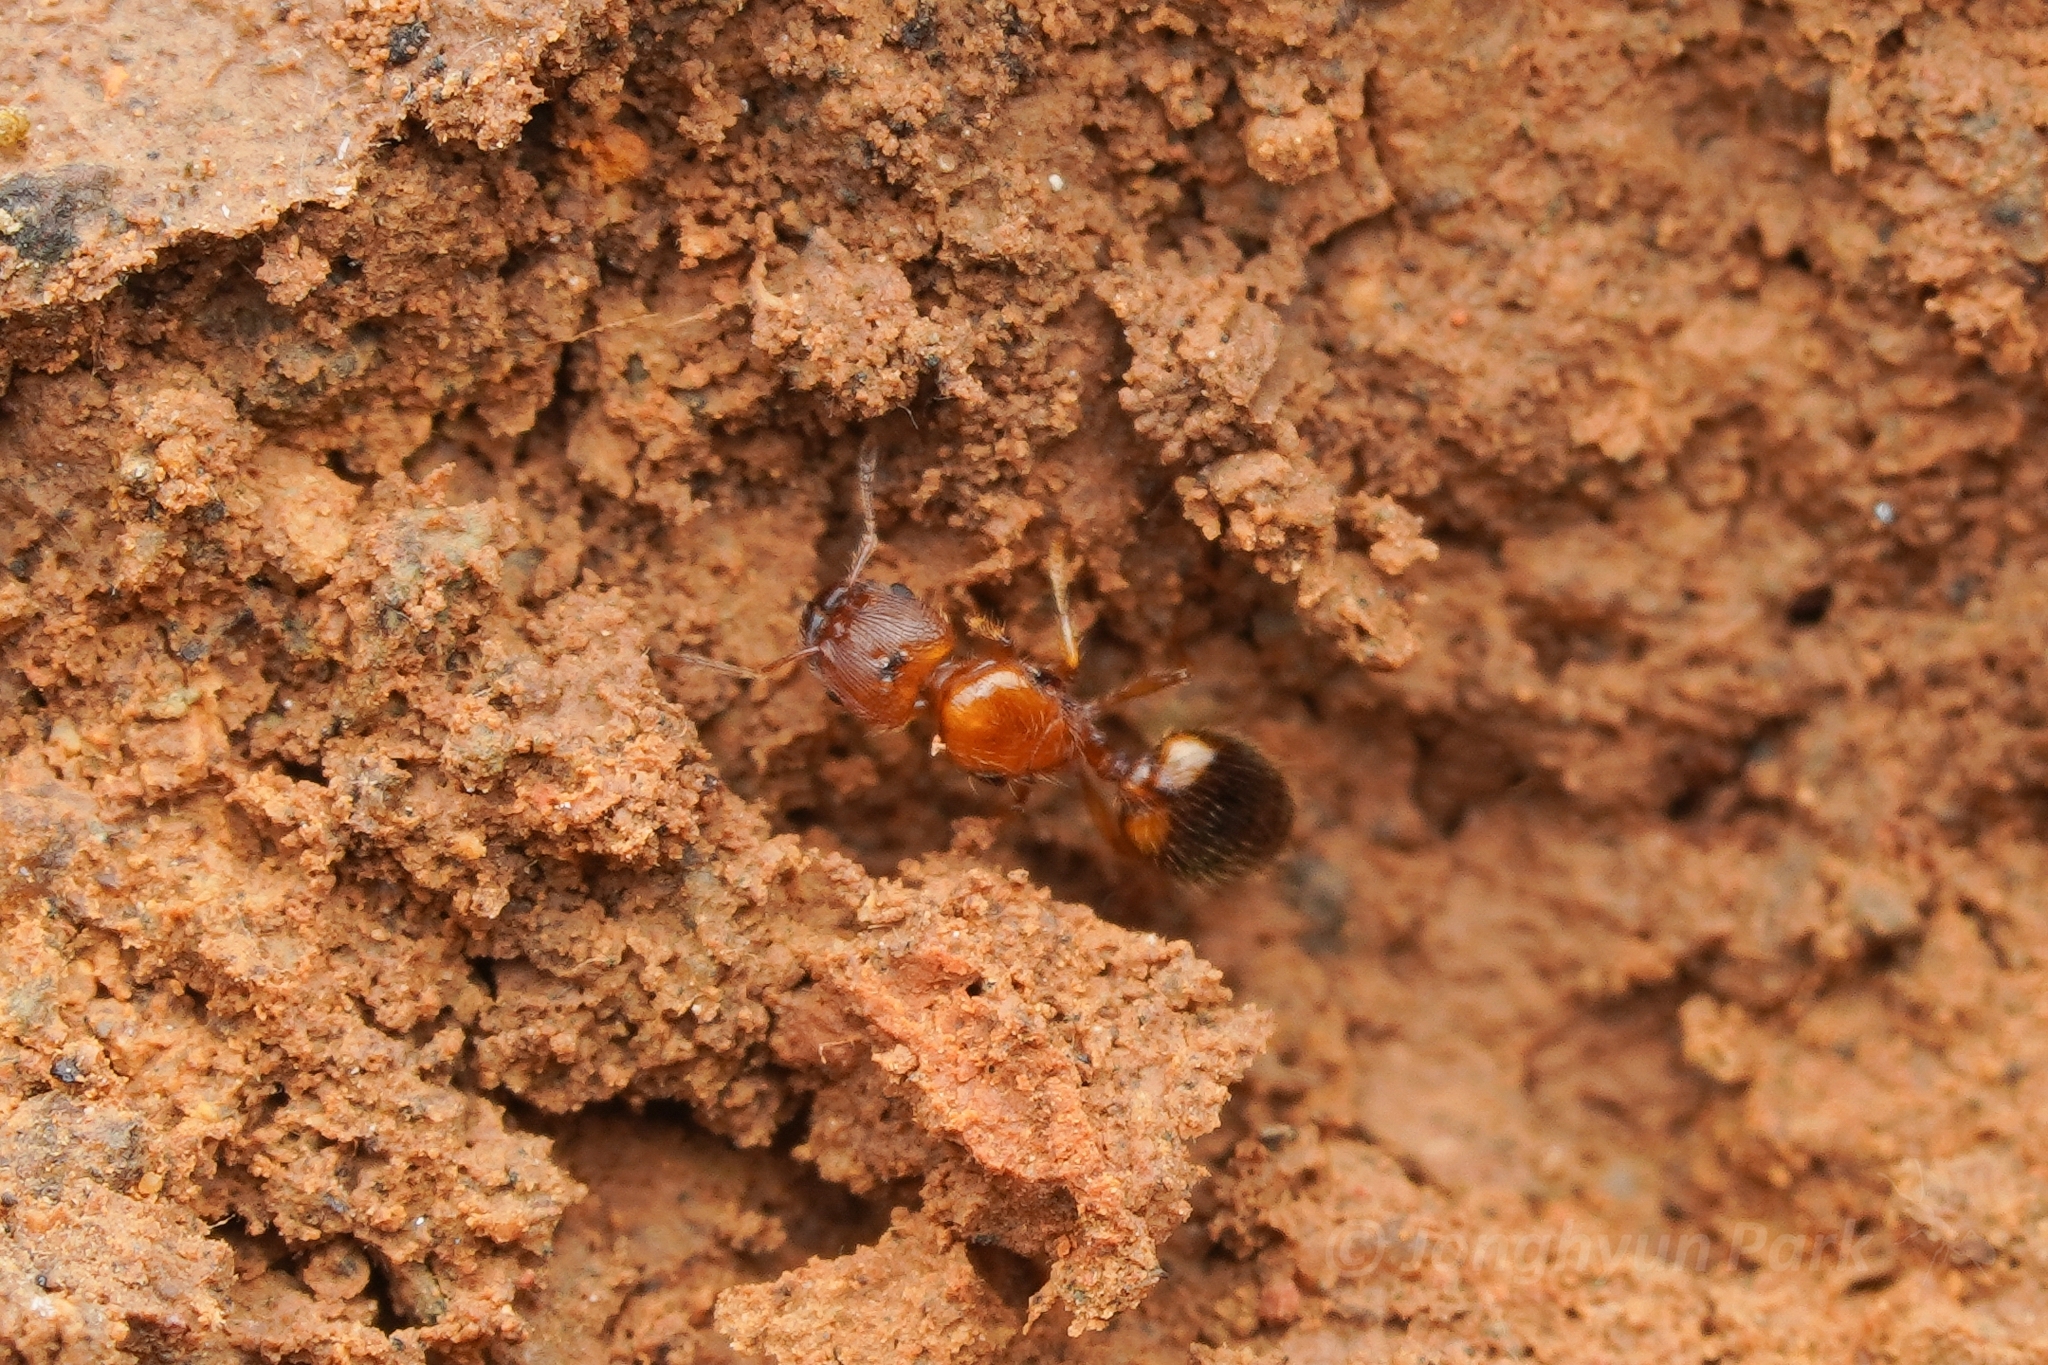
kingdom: Animalia
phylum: Arthropoda
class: Insecta
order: Hymenoptera
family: Formicidae
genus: Pheidole
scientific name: Pheidole pieli
